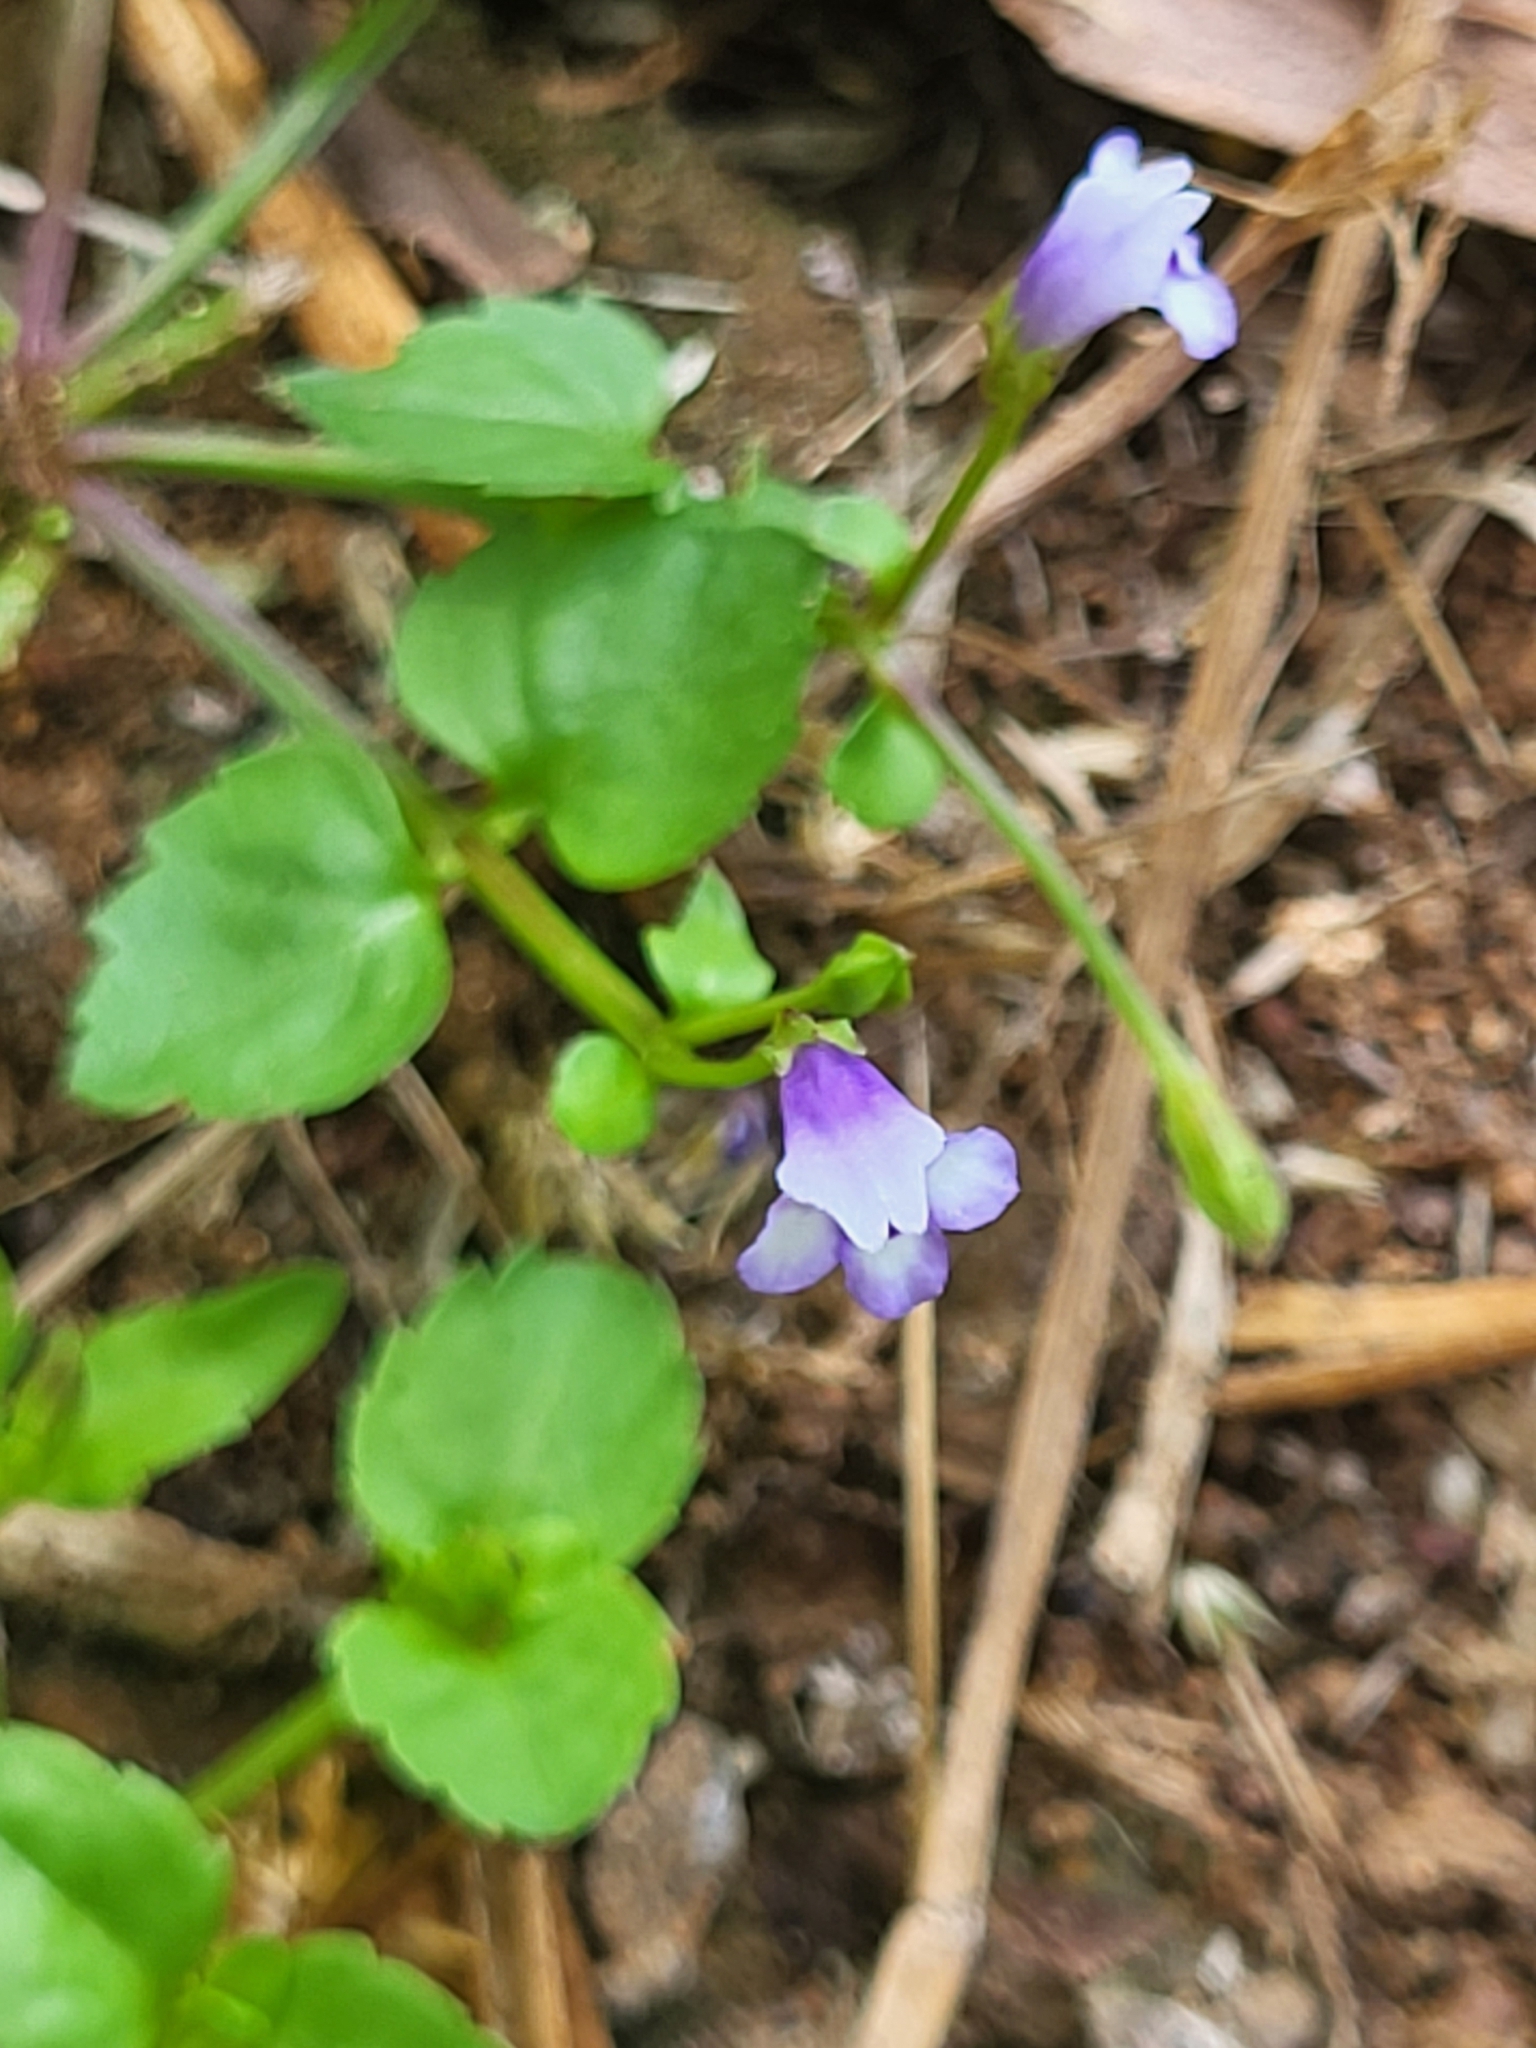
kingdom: Plantae
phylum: Tracheophyta
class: Magnoliopsida
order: Lamiales
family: Linderniaceae
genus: Torenia
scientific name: Torenia crustacea
